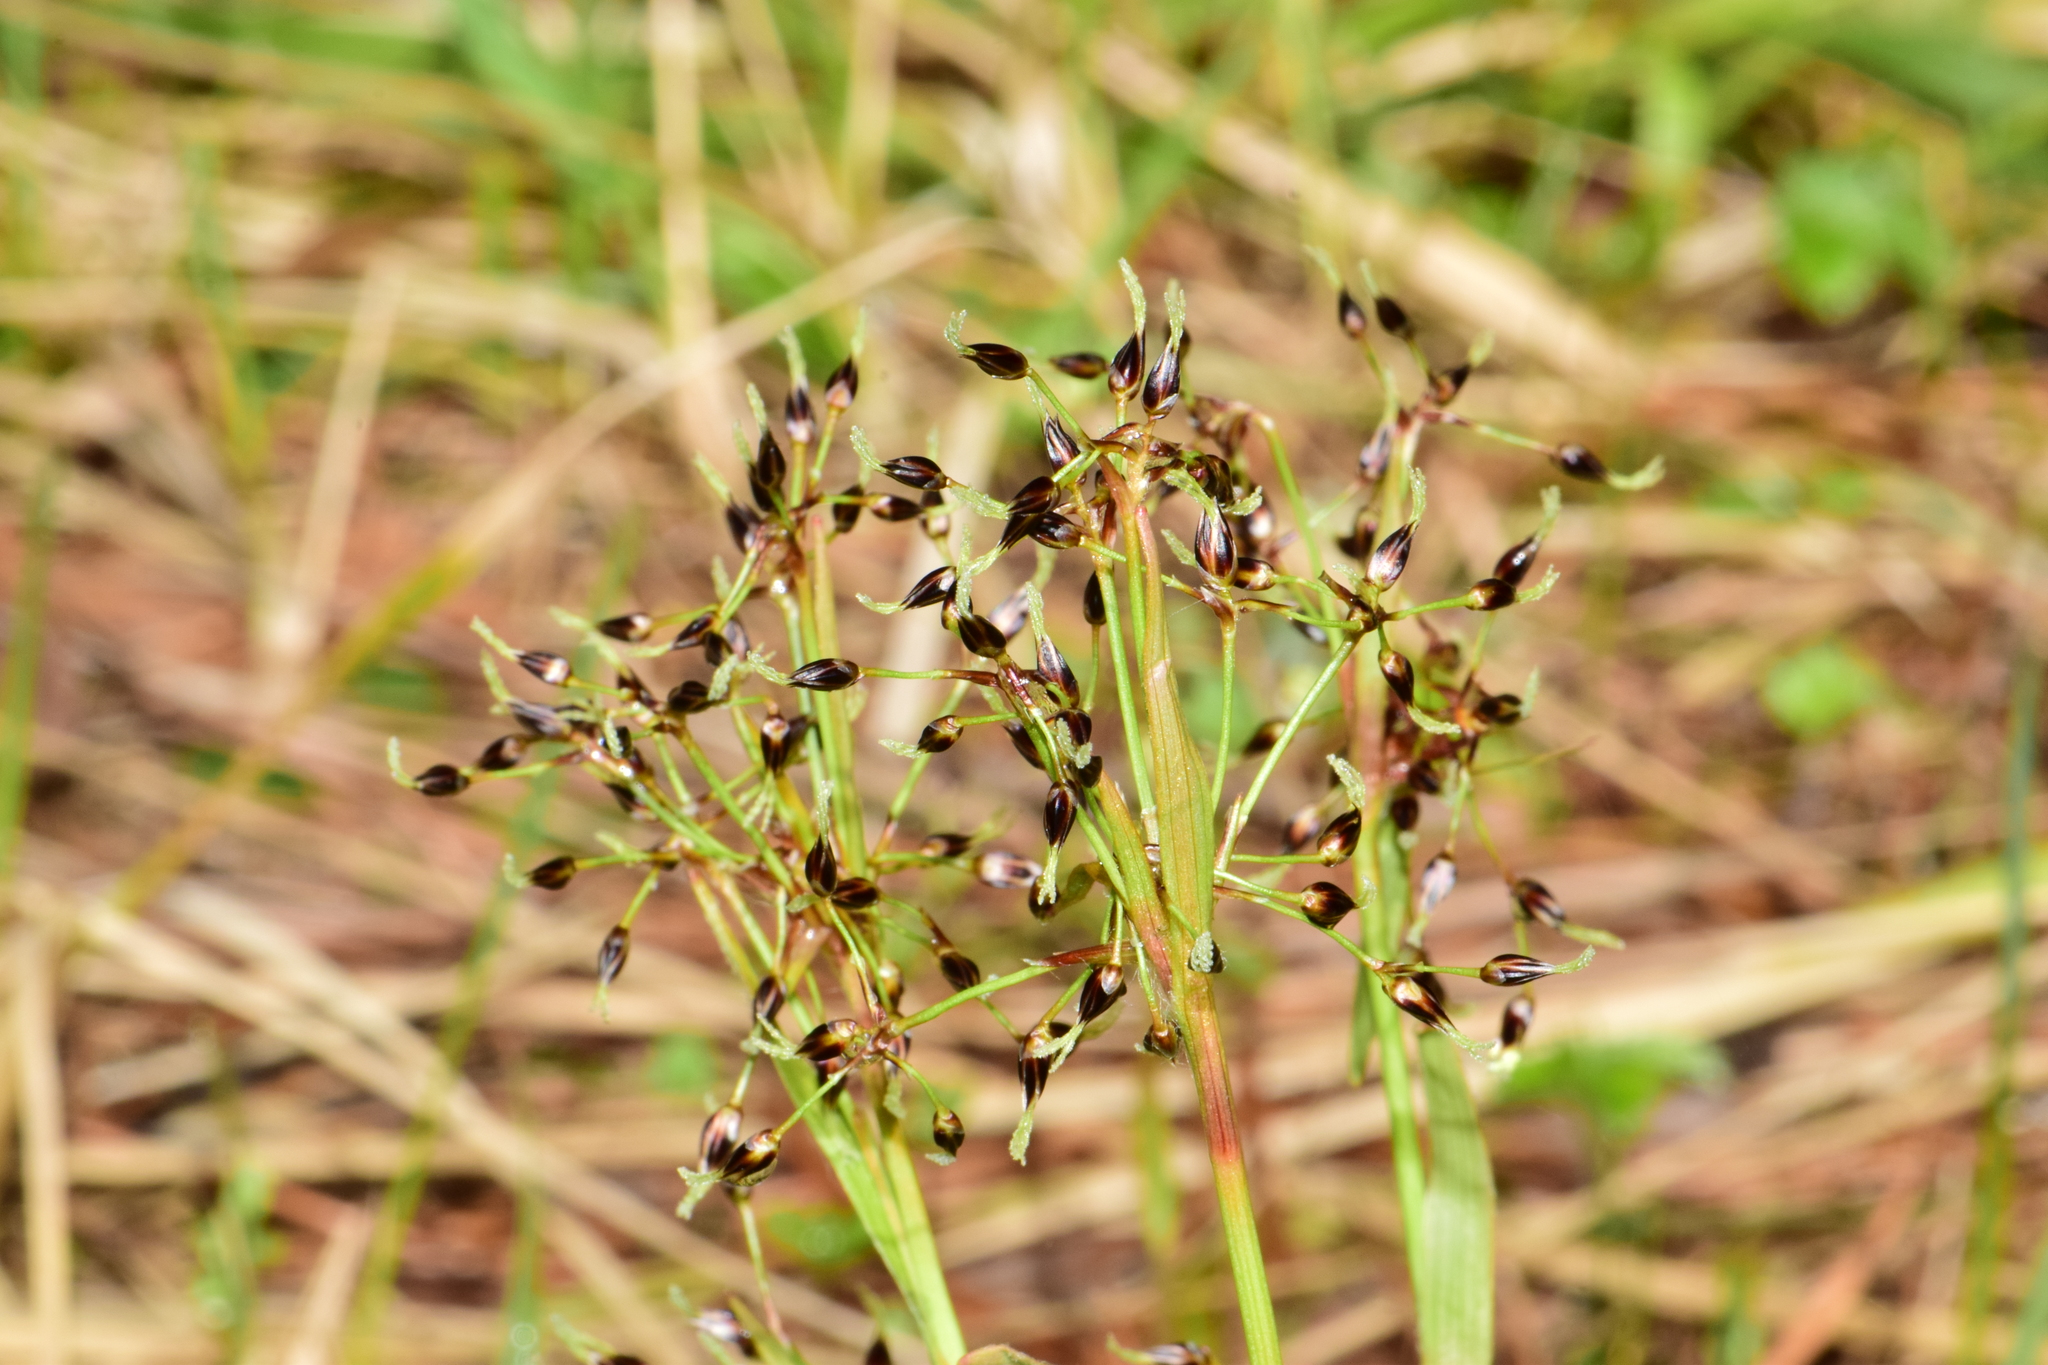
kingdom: Plantae
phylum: Tracheophyta
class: Liliopsida
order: Poales
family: Juncaceae
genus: Luzula
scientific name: Luzula pilosa
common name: Hairy wood-rush
